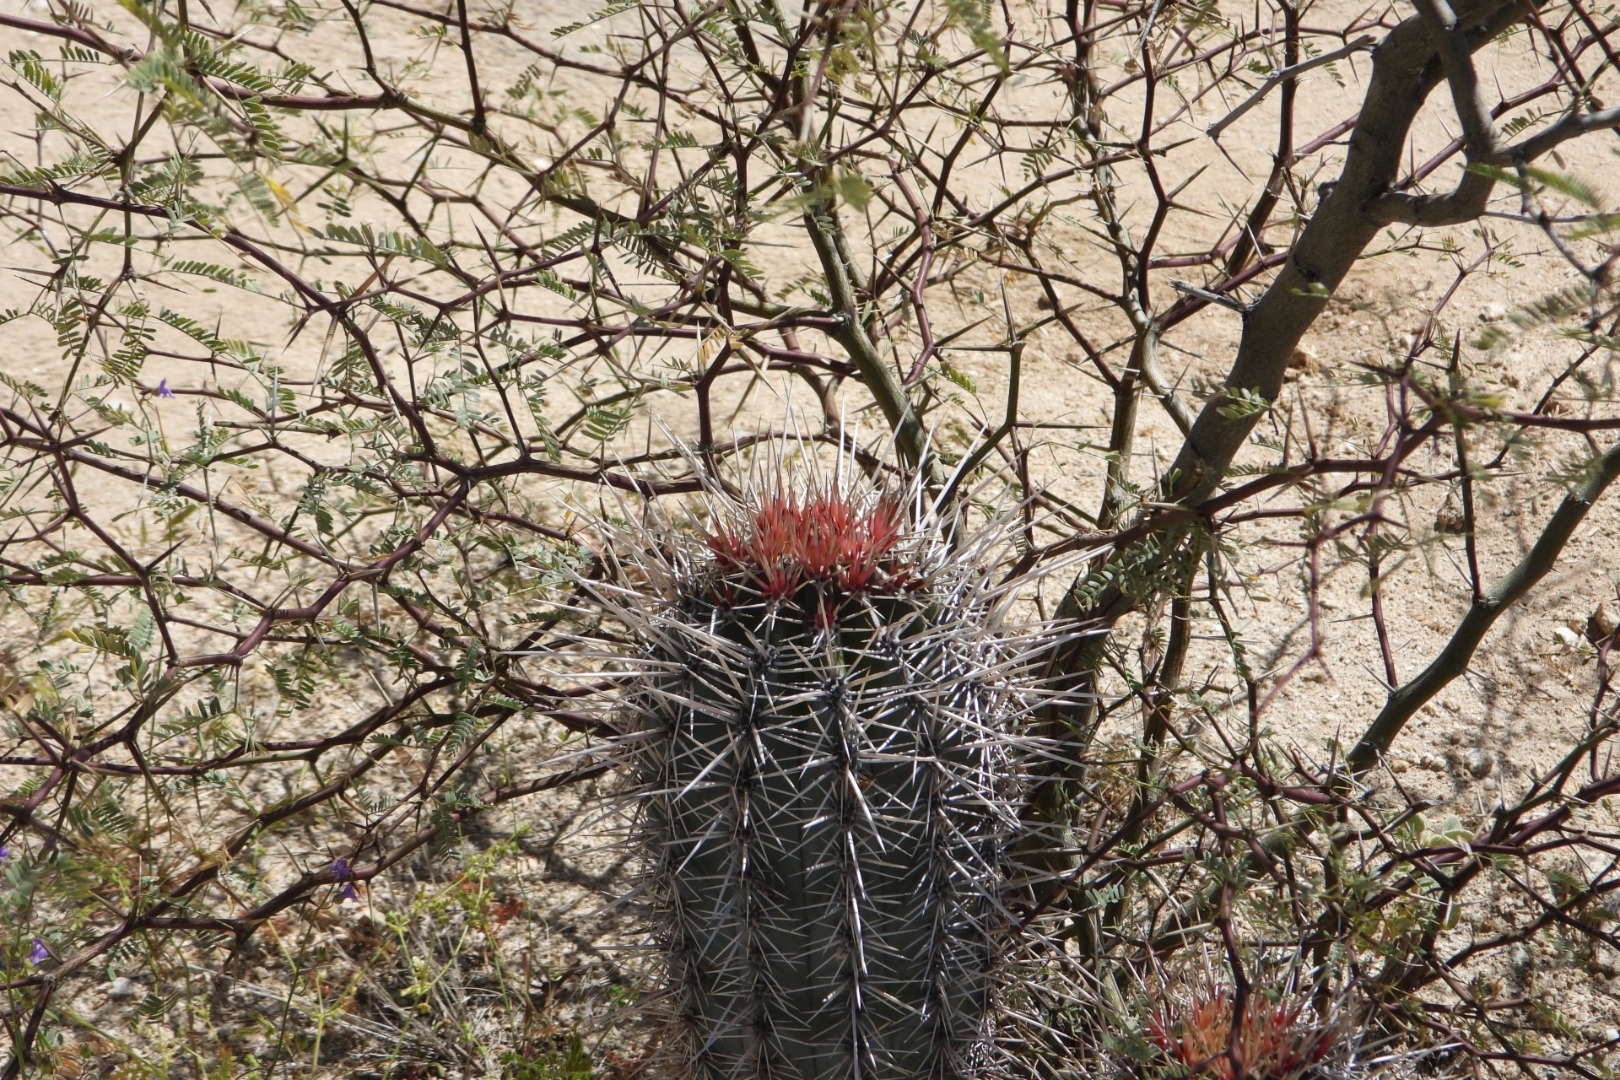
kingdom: Plantae
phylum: Tracheophyta
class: Magnoliopsida
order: Caryophyllales
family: Cactaceae
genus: Ferocactus
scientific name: Ferocactus peninsulae
